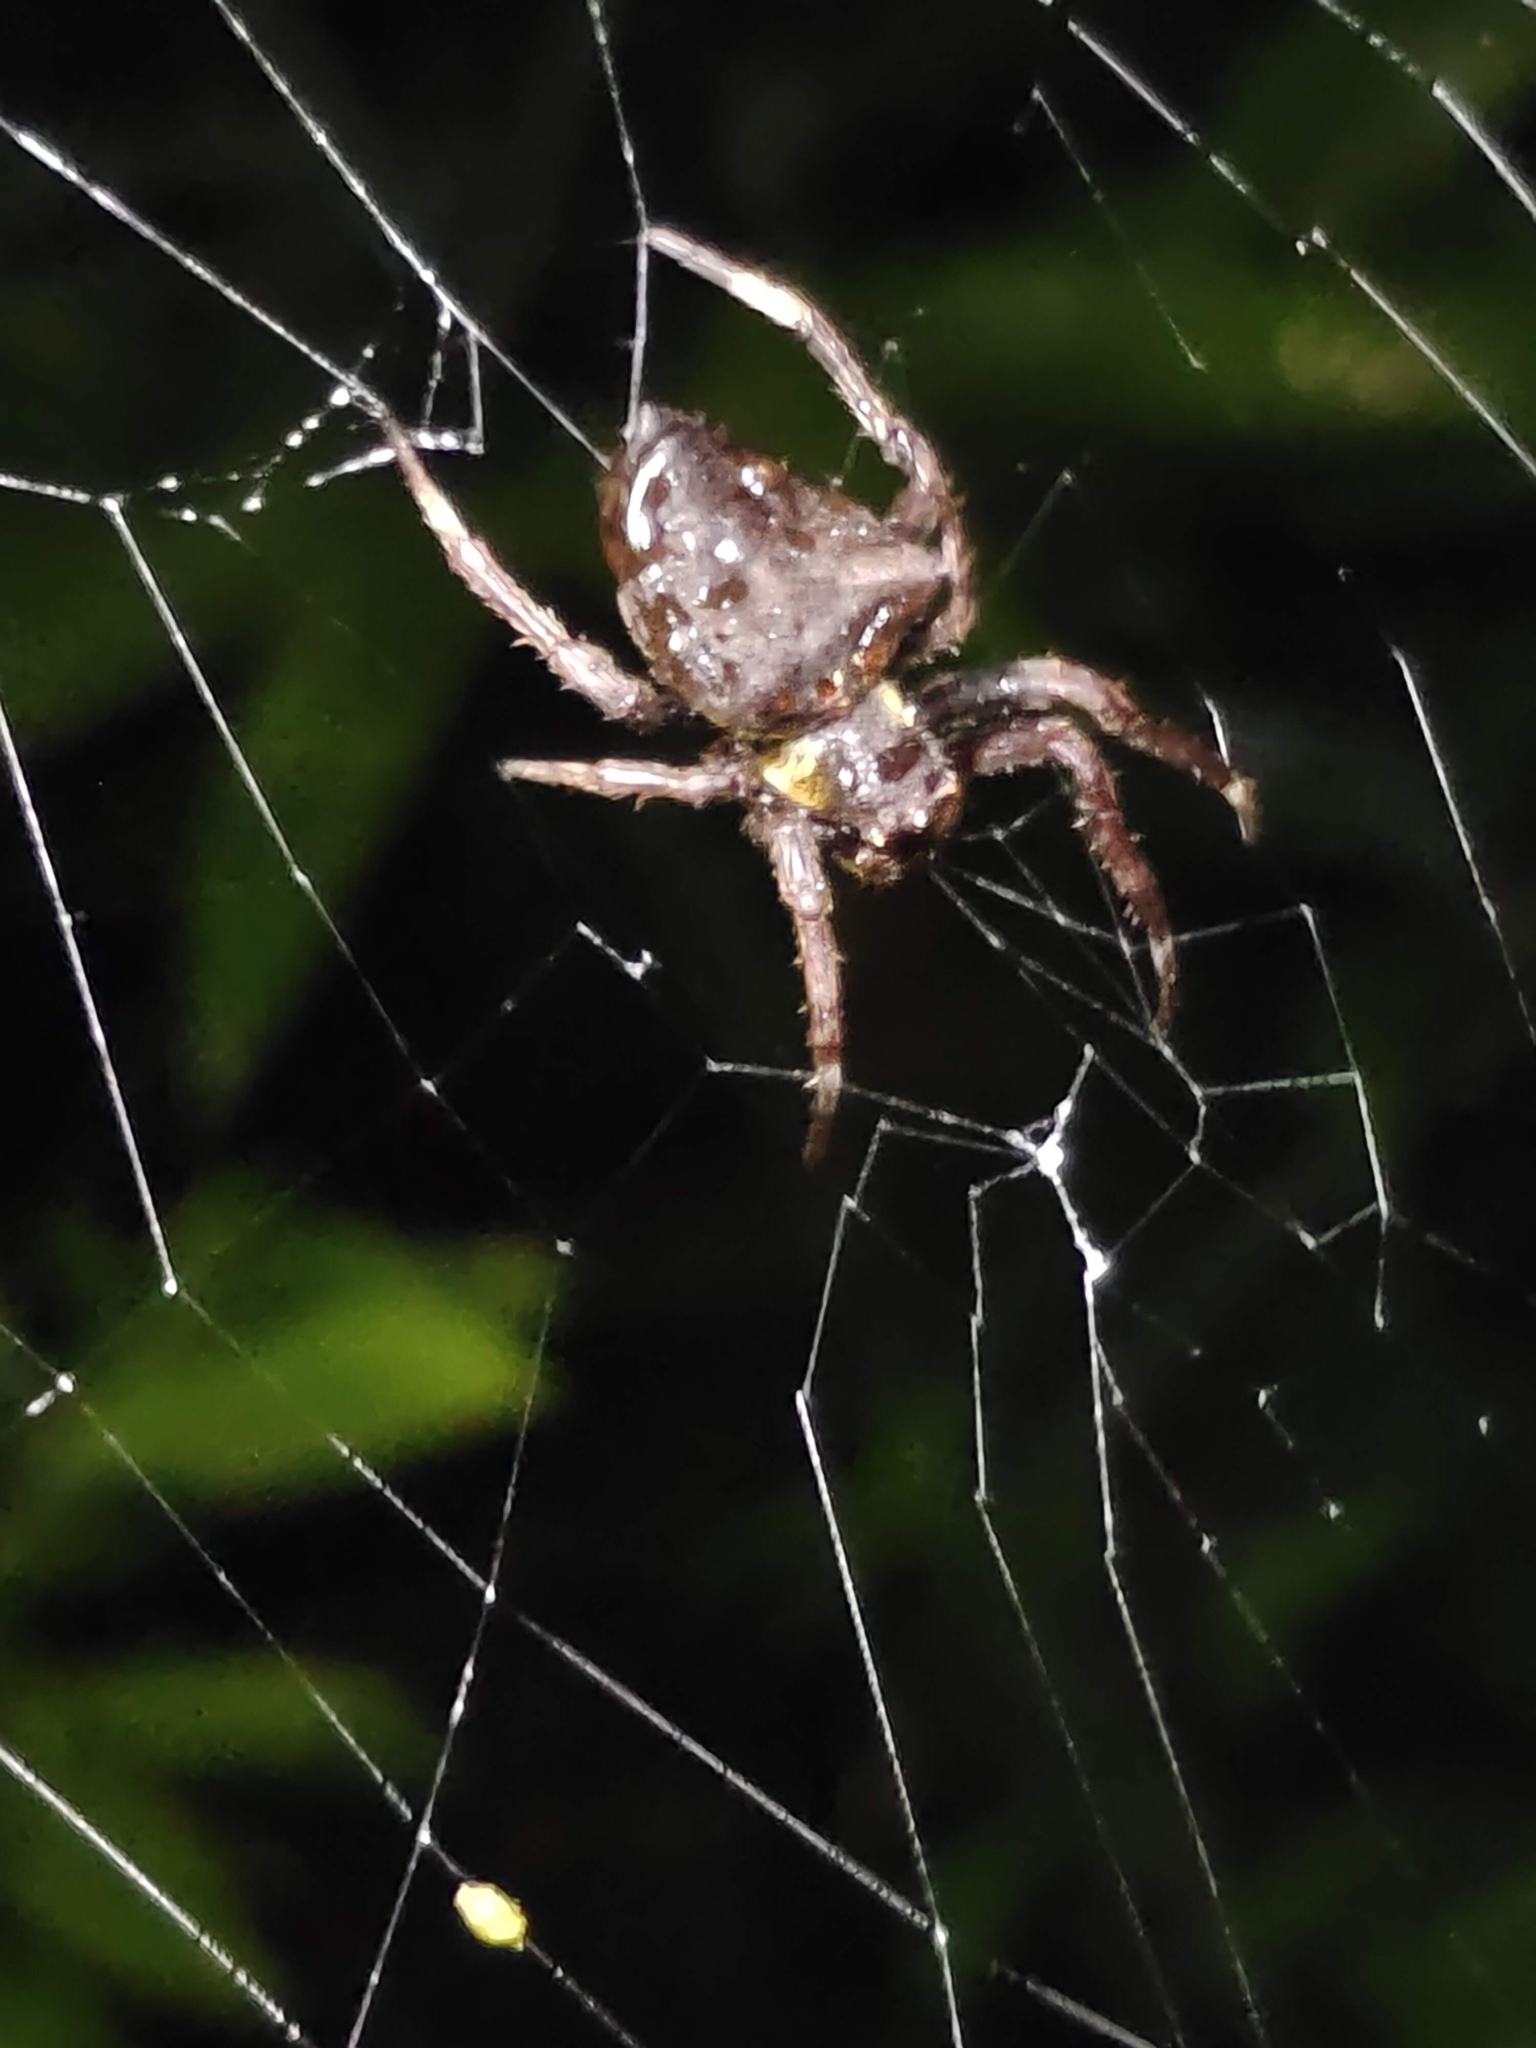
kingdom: Animalia
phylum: Arthropoda
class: Arachnida
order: Araneae
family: Araneidae
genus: Parawixia
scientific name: Parawixia dehaani
